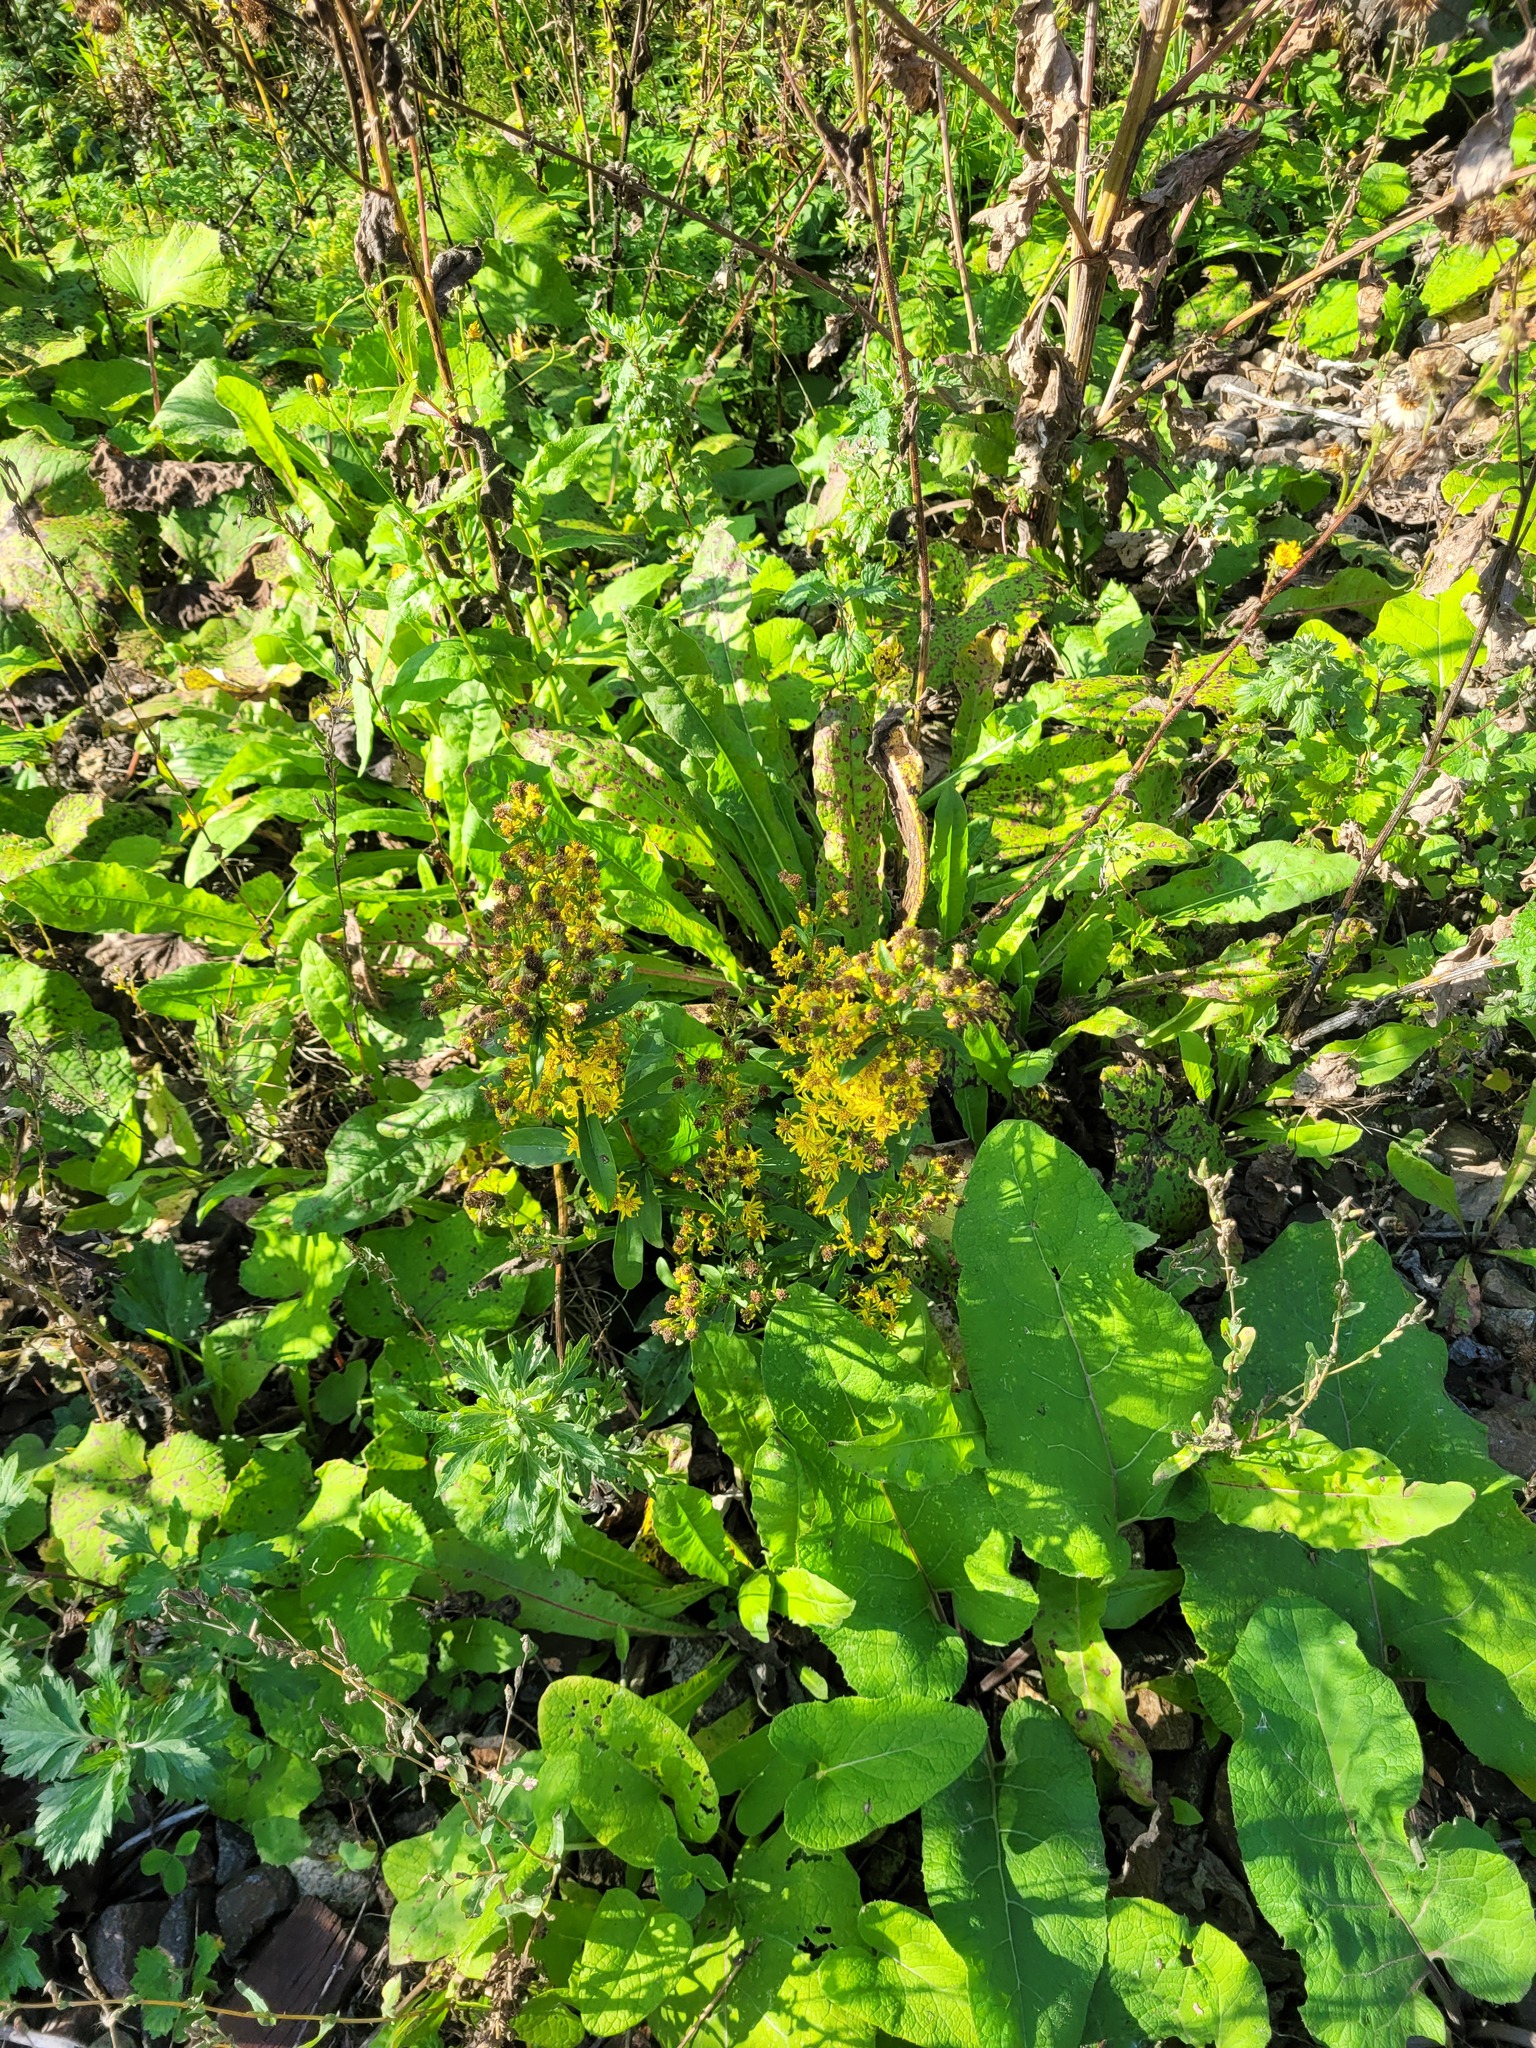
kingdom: Plantae
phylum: Tracheophyta
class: Magnoliopsida
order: Asterales
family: Asteraceae
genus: Solidago
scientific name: Solidago virgaurea
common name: Goldenrod
